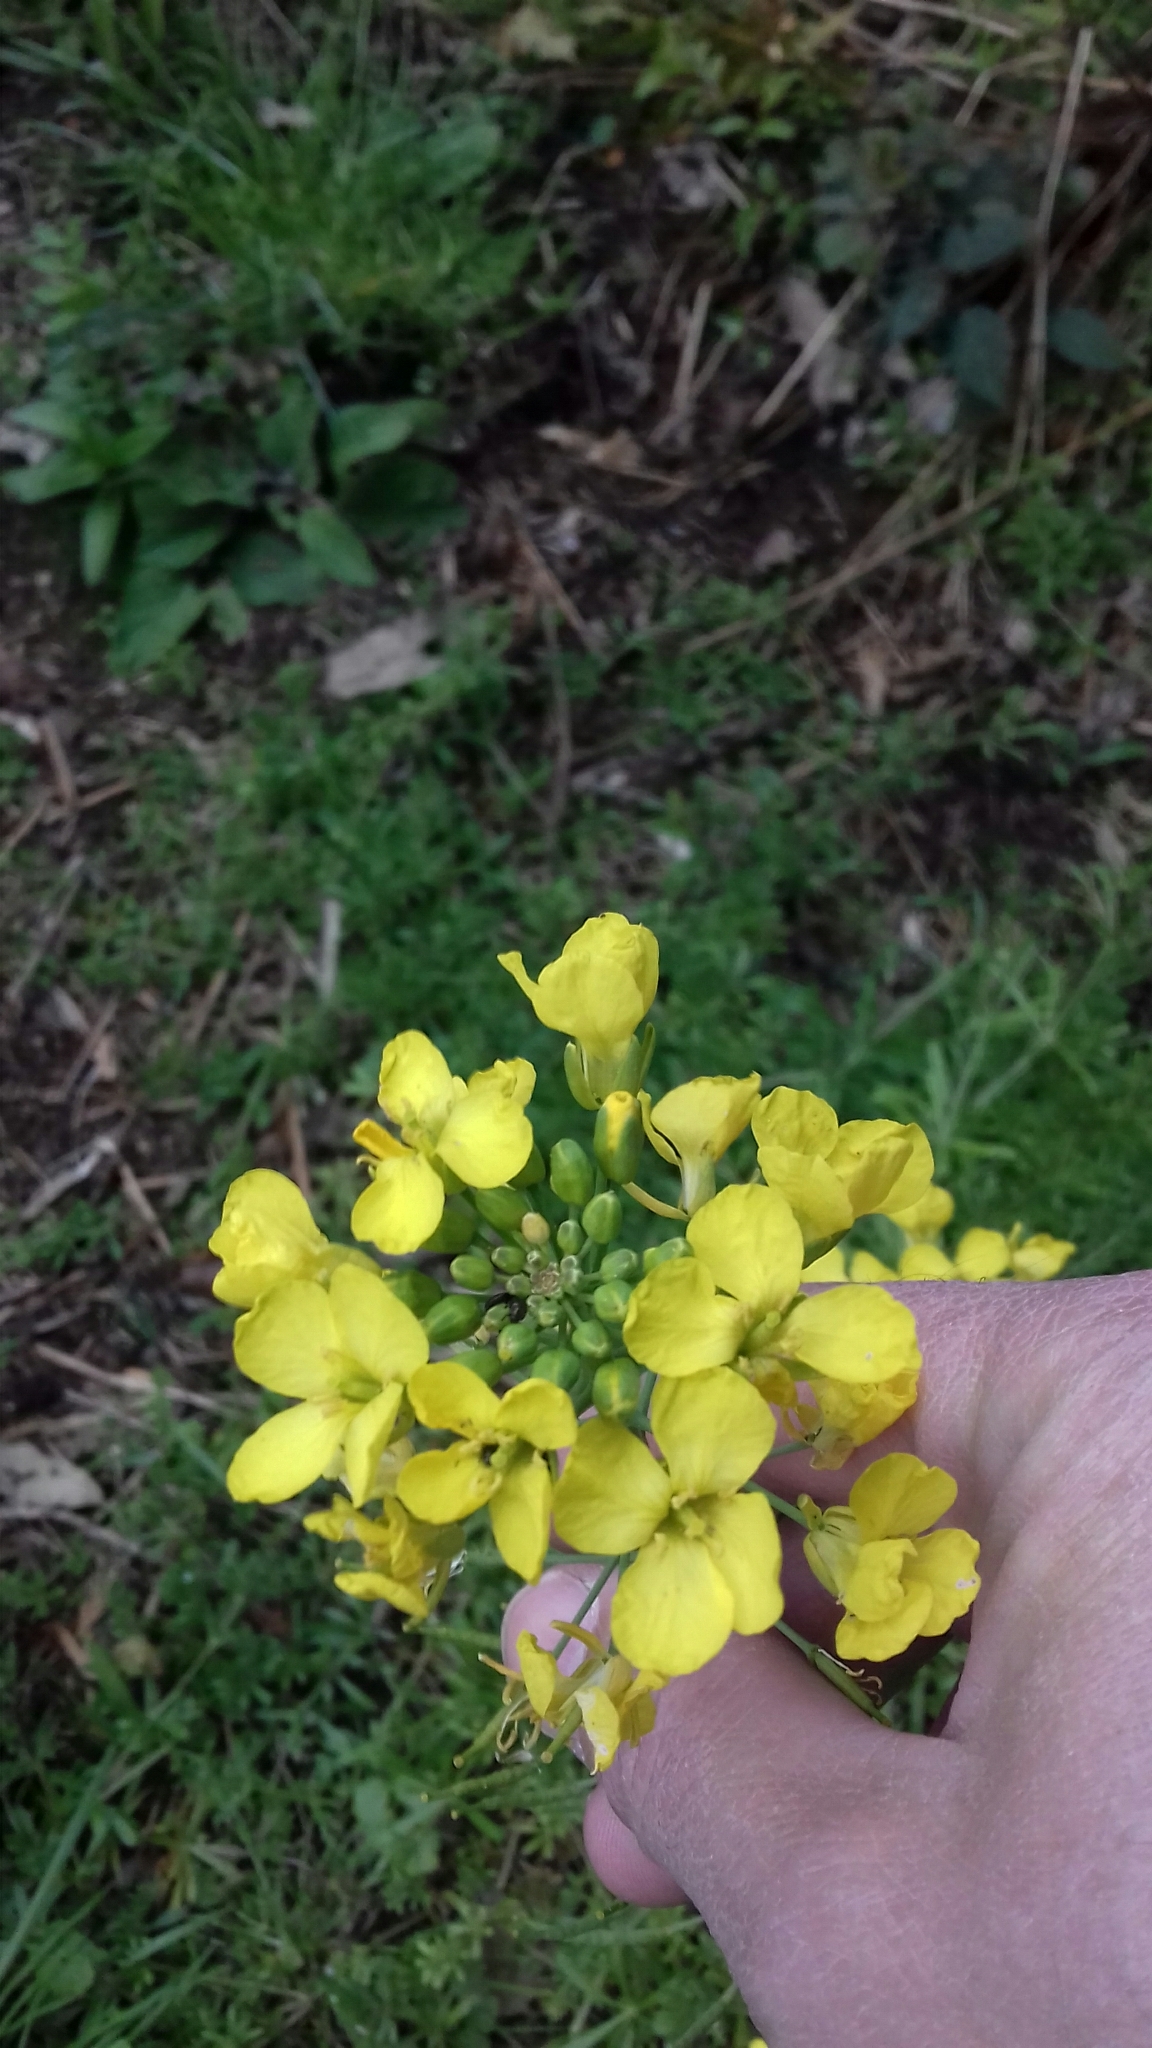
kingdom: Plantae
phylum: Tracheophyta
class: Magnoliopsida
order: Brassicales
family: Brassicaceae
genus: Brassica
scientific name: Brassica rapa
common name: Field mustard
